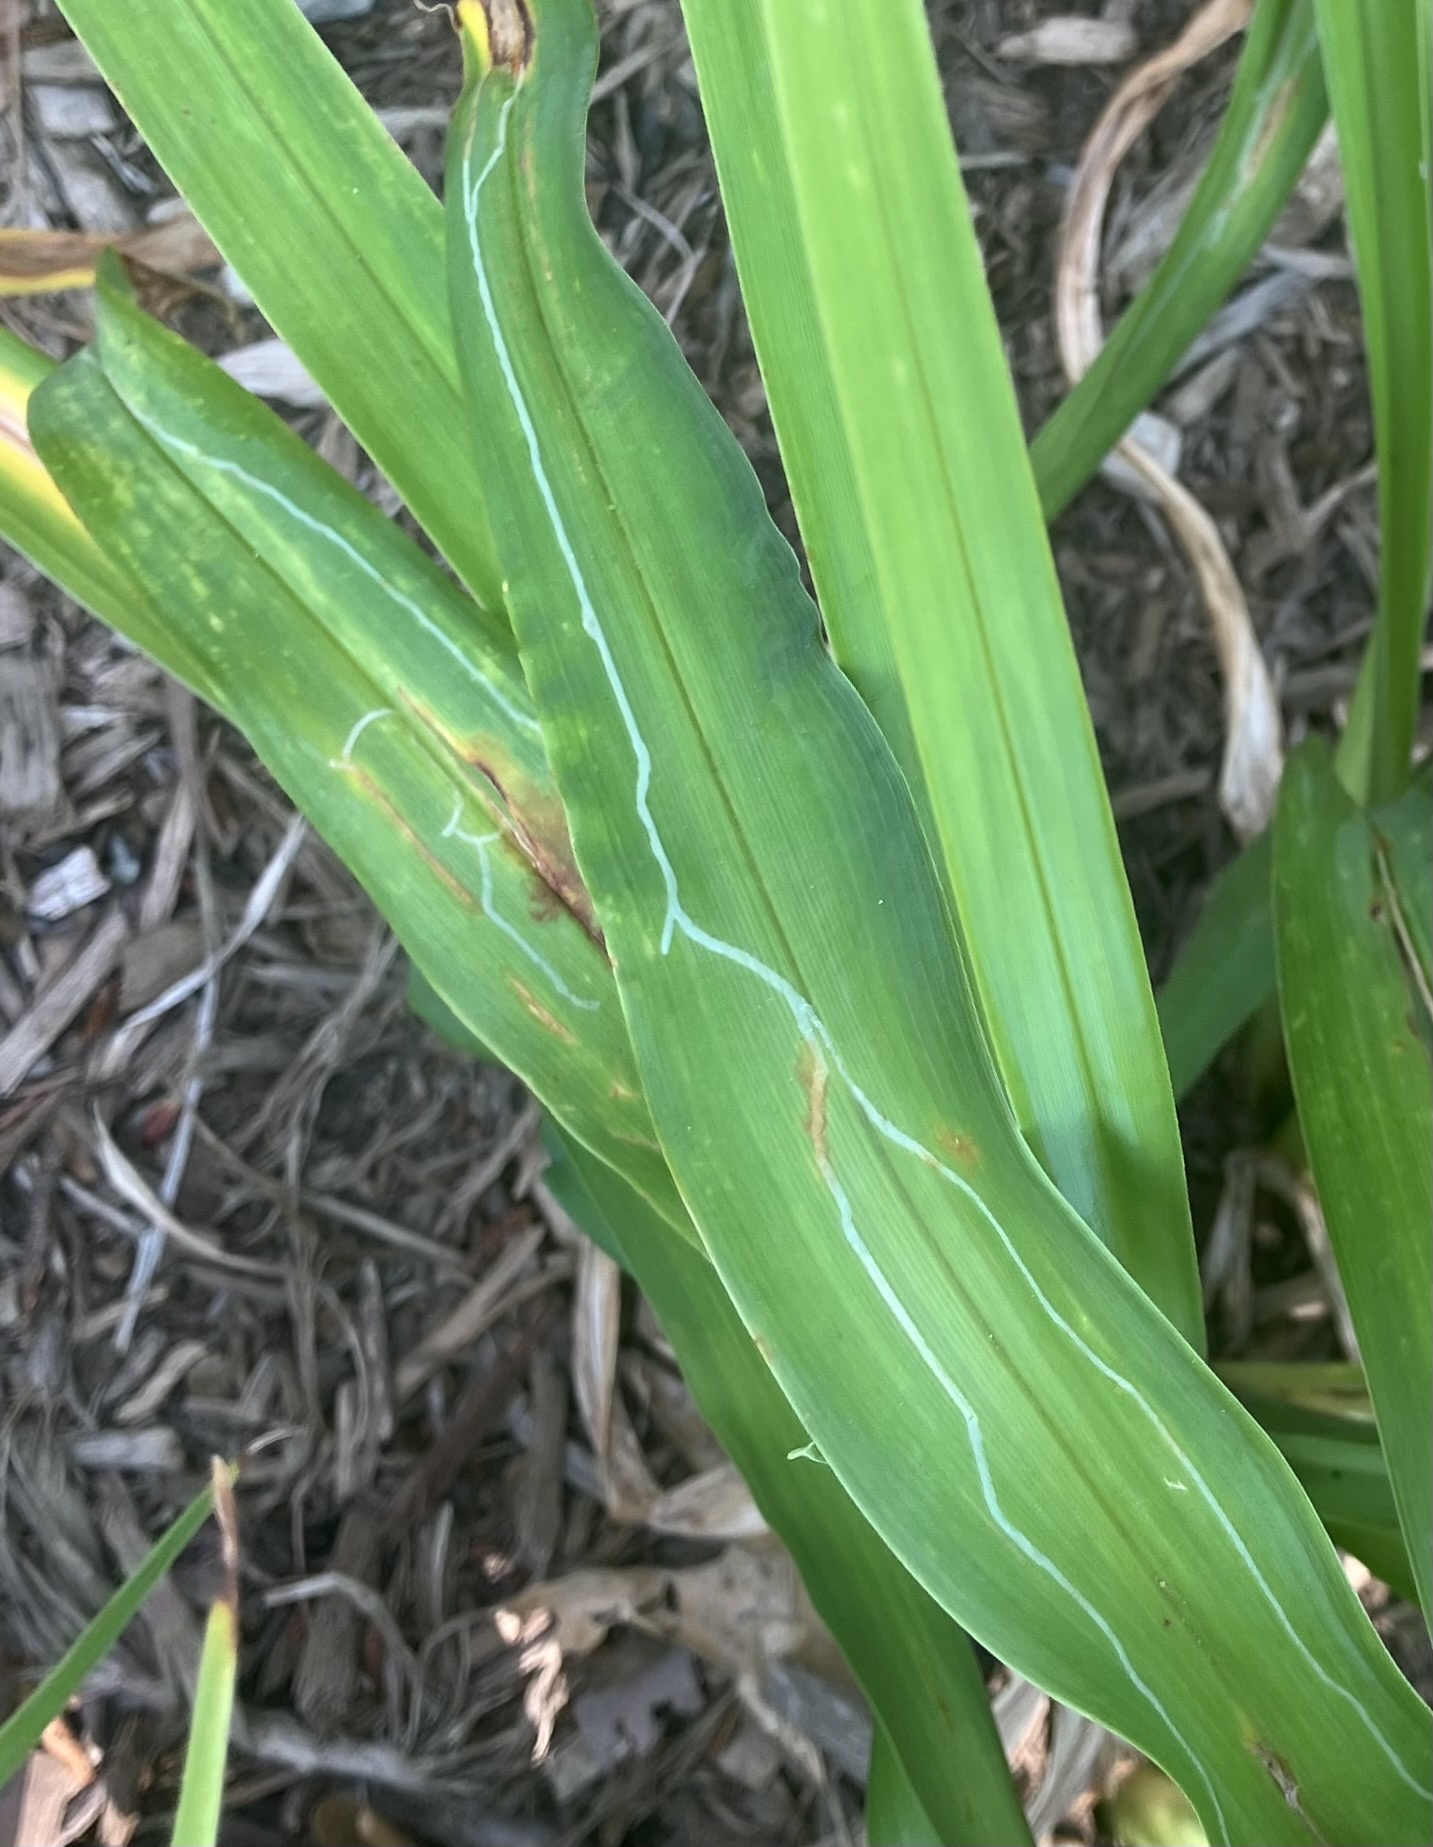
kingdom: Animalia
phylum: Arthropoda
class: Insecta
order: Diptera
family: Agromyzidae
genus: Ophiomyia
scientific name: Ophiomyia kwansonis
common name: Daylily leafminer
